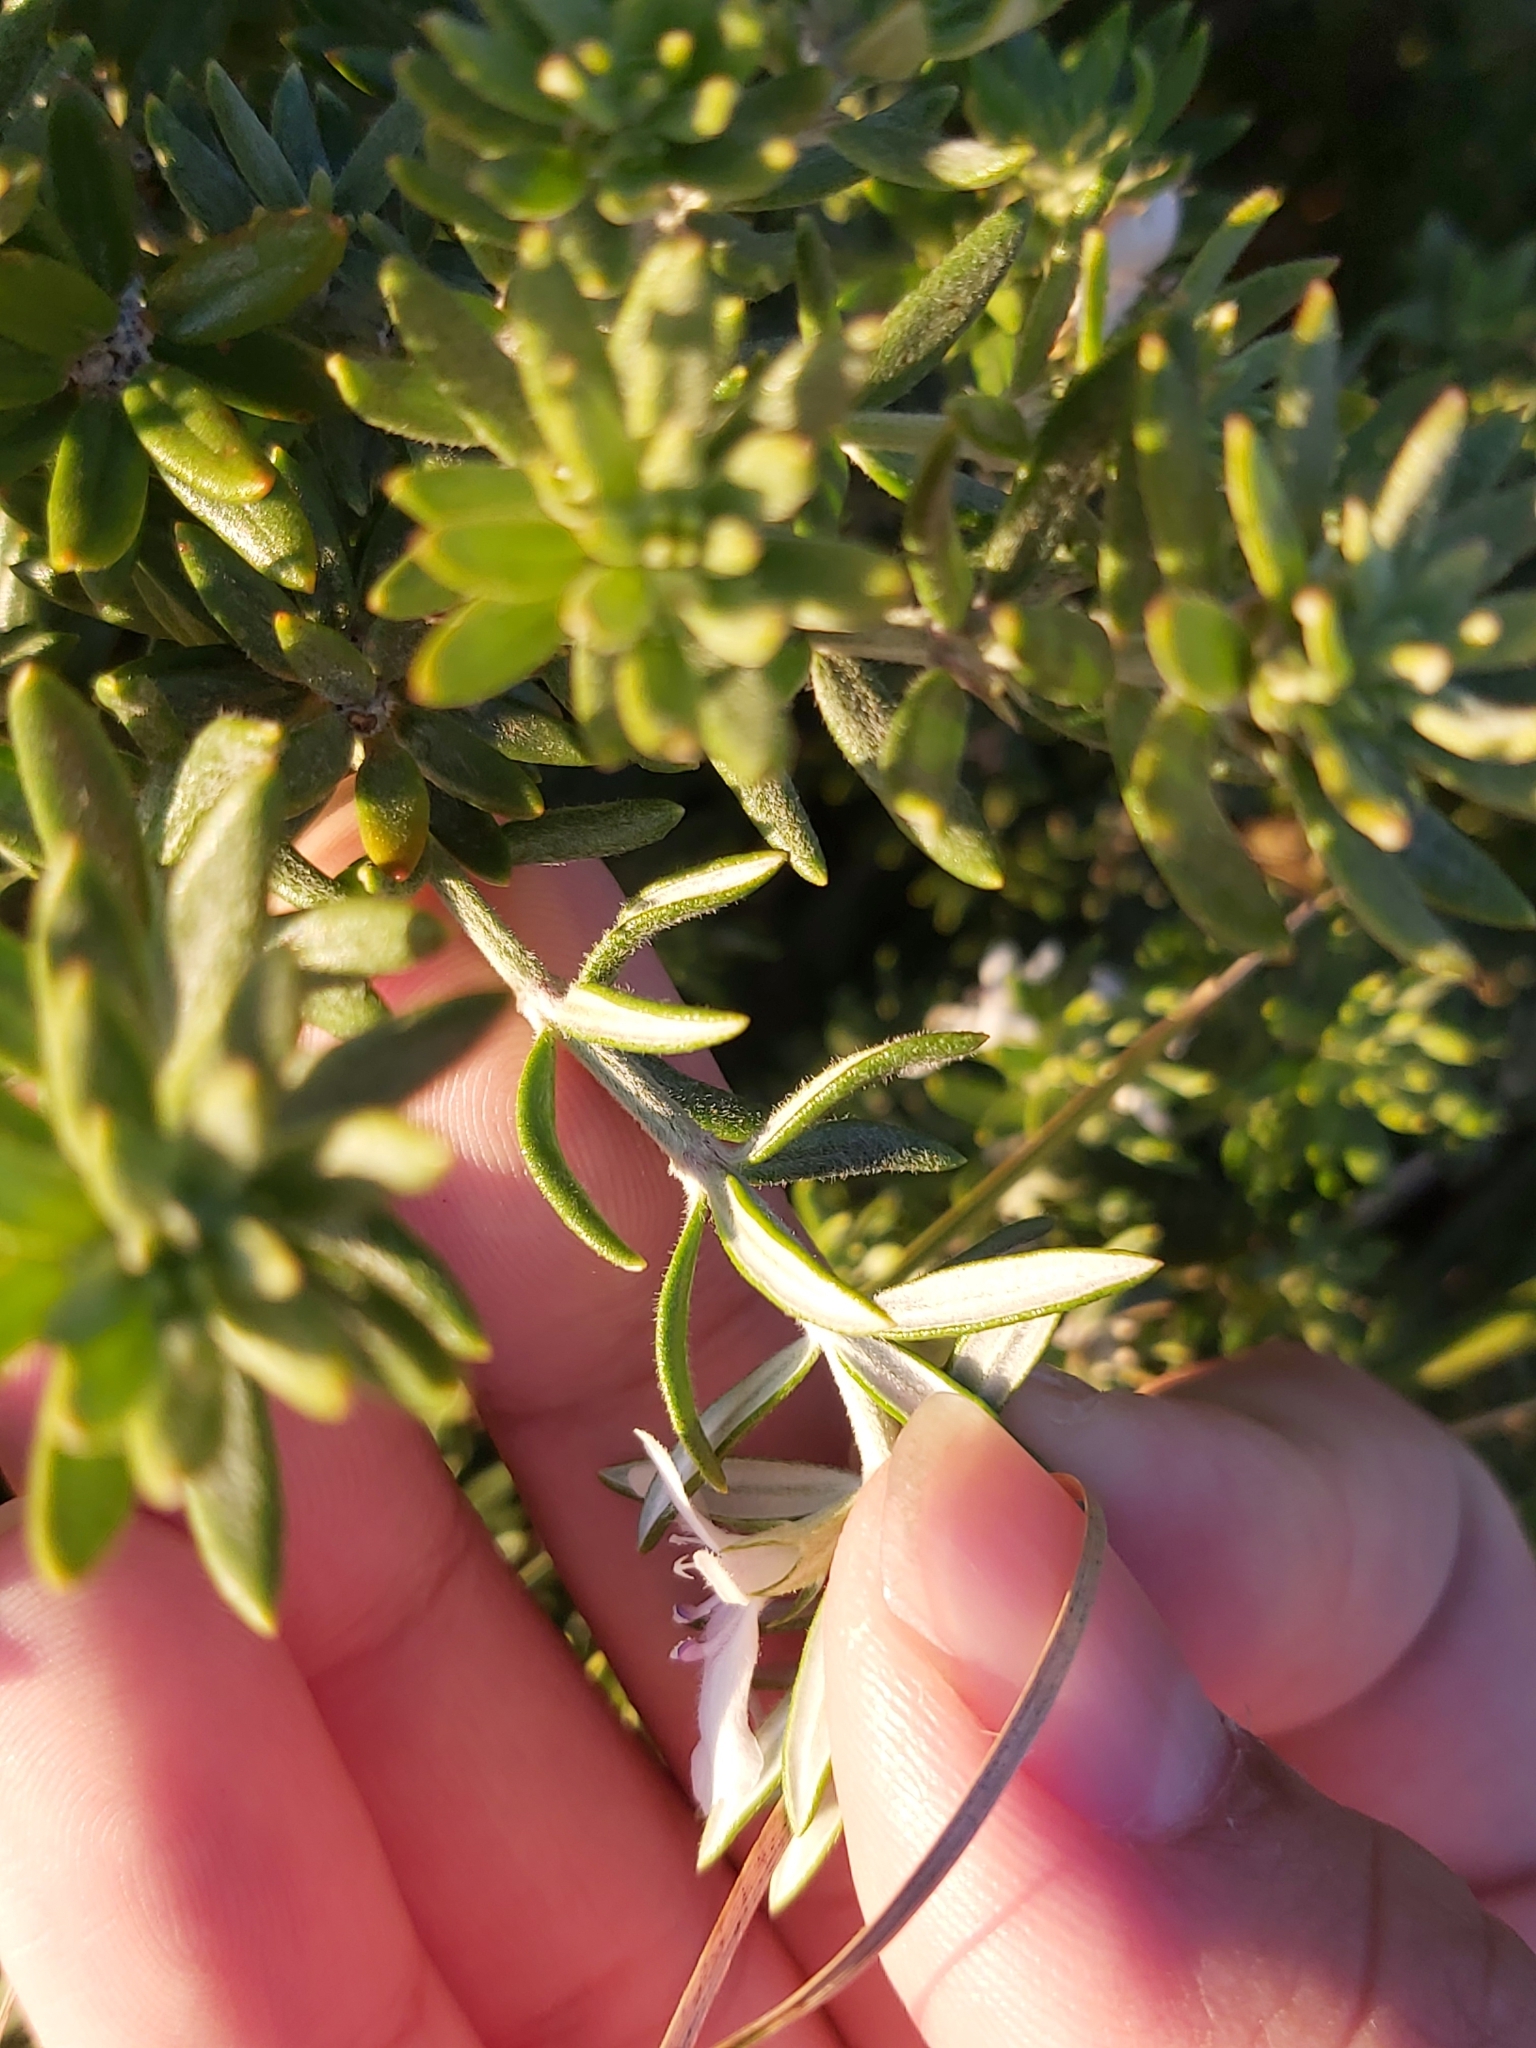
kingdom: Plantae
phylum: Tracheophyta
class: Magnoliopsida
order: Lamiales
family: Lamiaceae
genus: Westringia
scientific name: Westringia fruticosa
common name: Coastal-rosemary
